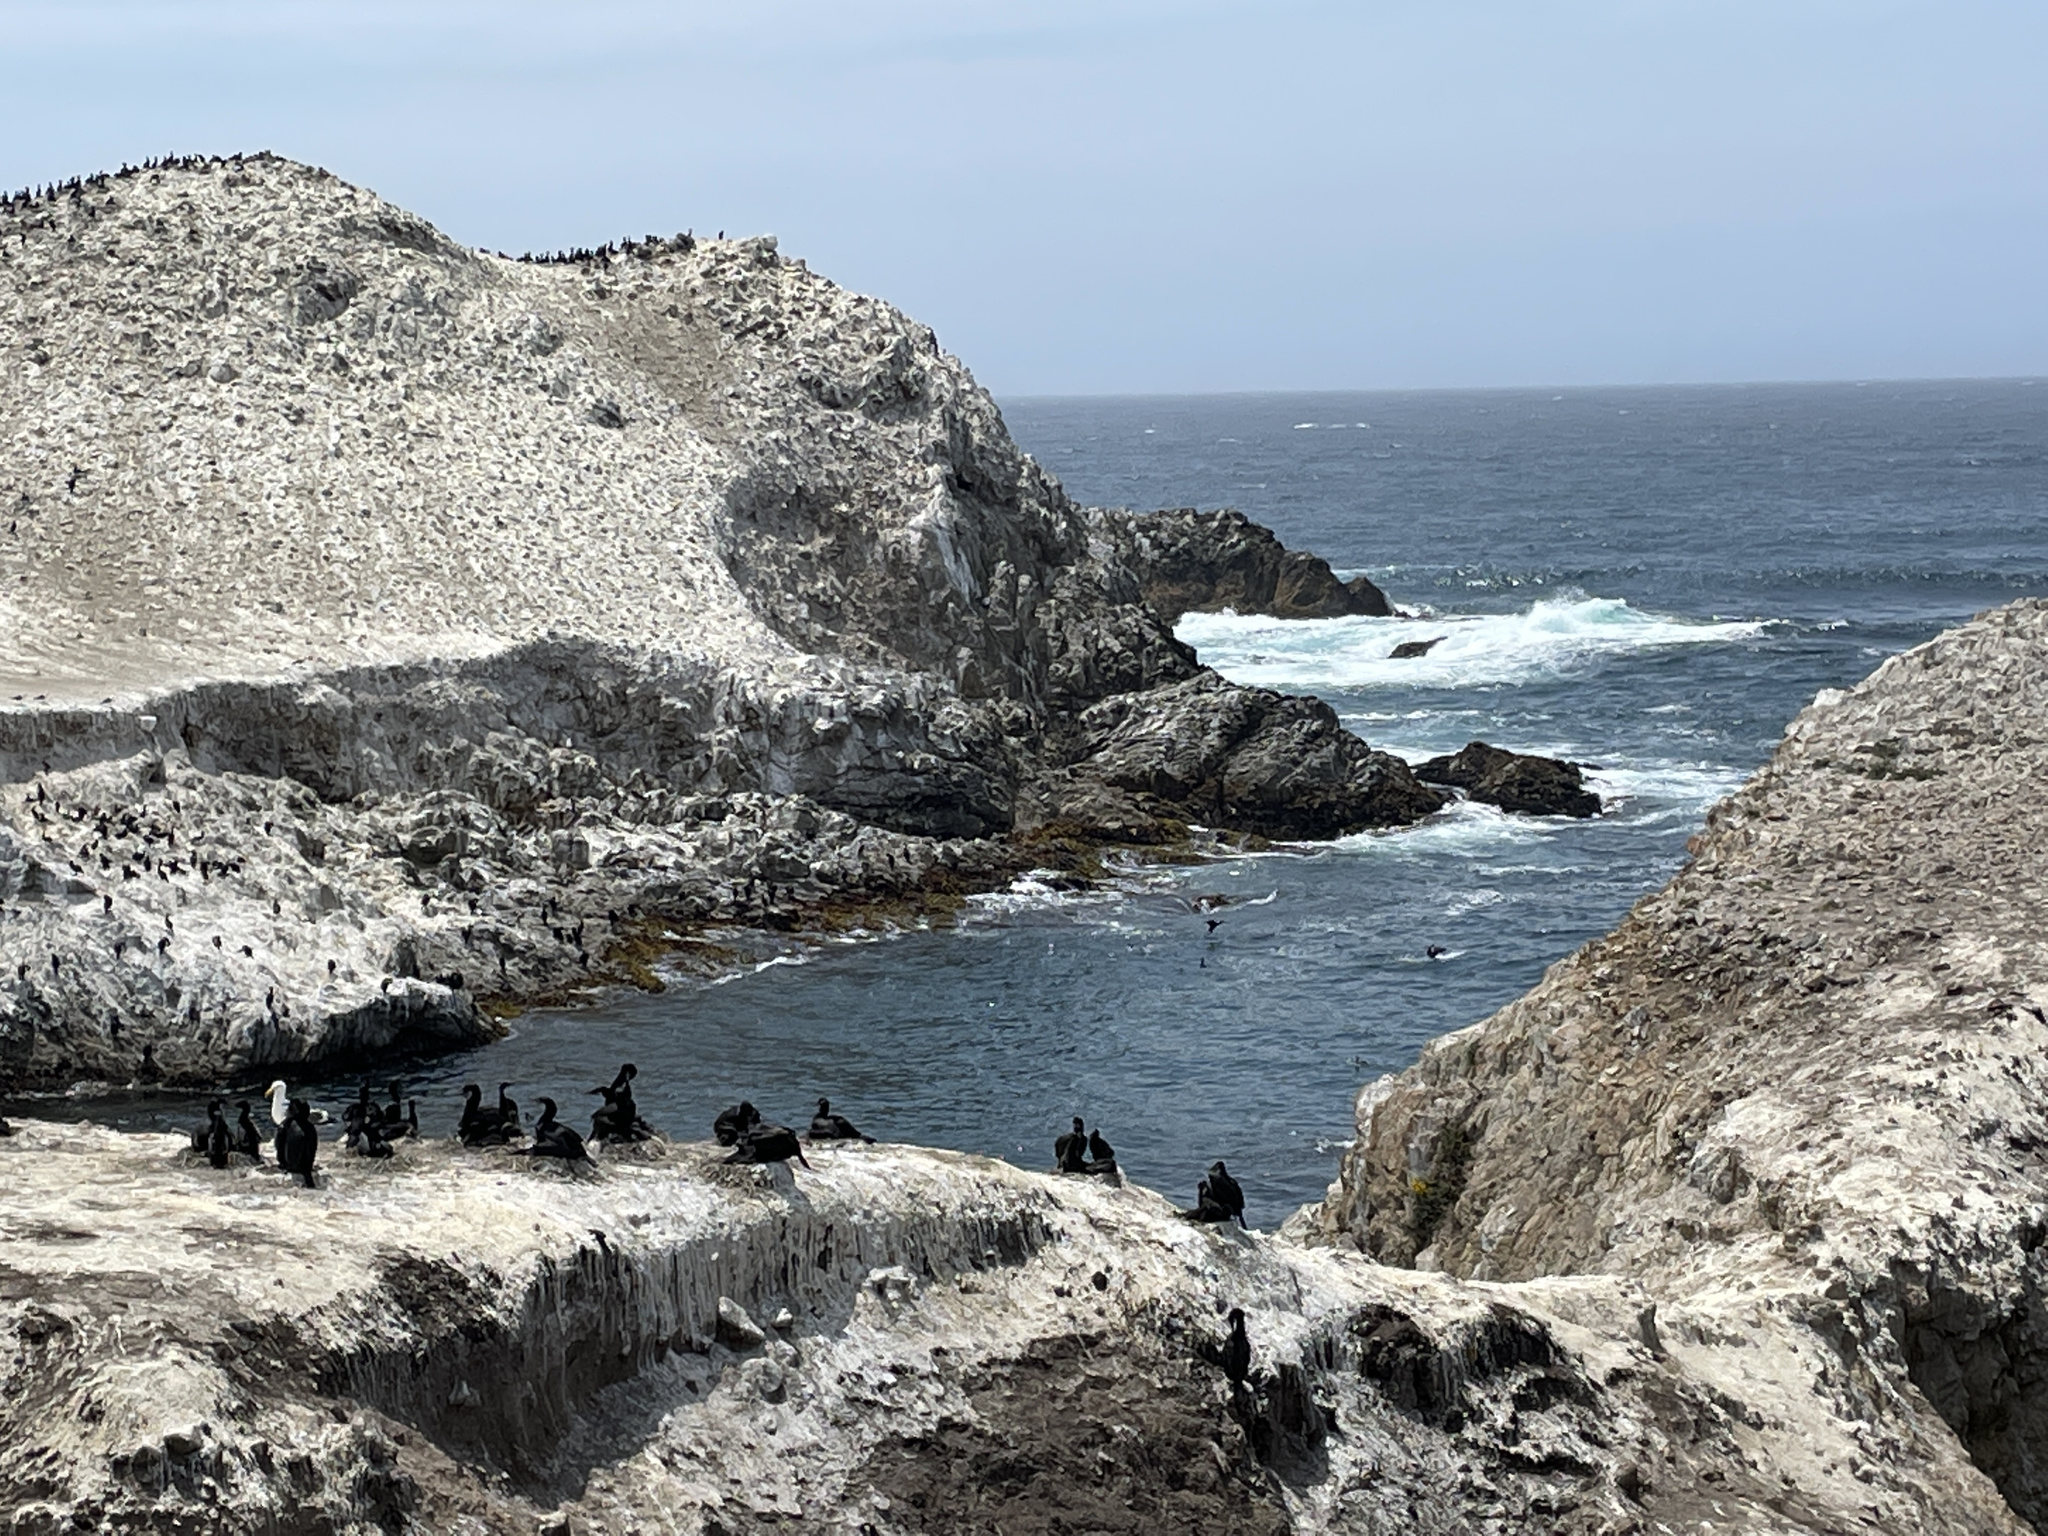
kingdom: Animalia
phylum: Chordata
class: Aves
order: Suliformes
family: Phalacrocoracidae
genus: Urile
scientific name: Urile penicillatus
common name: Brandt's cormorant
